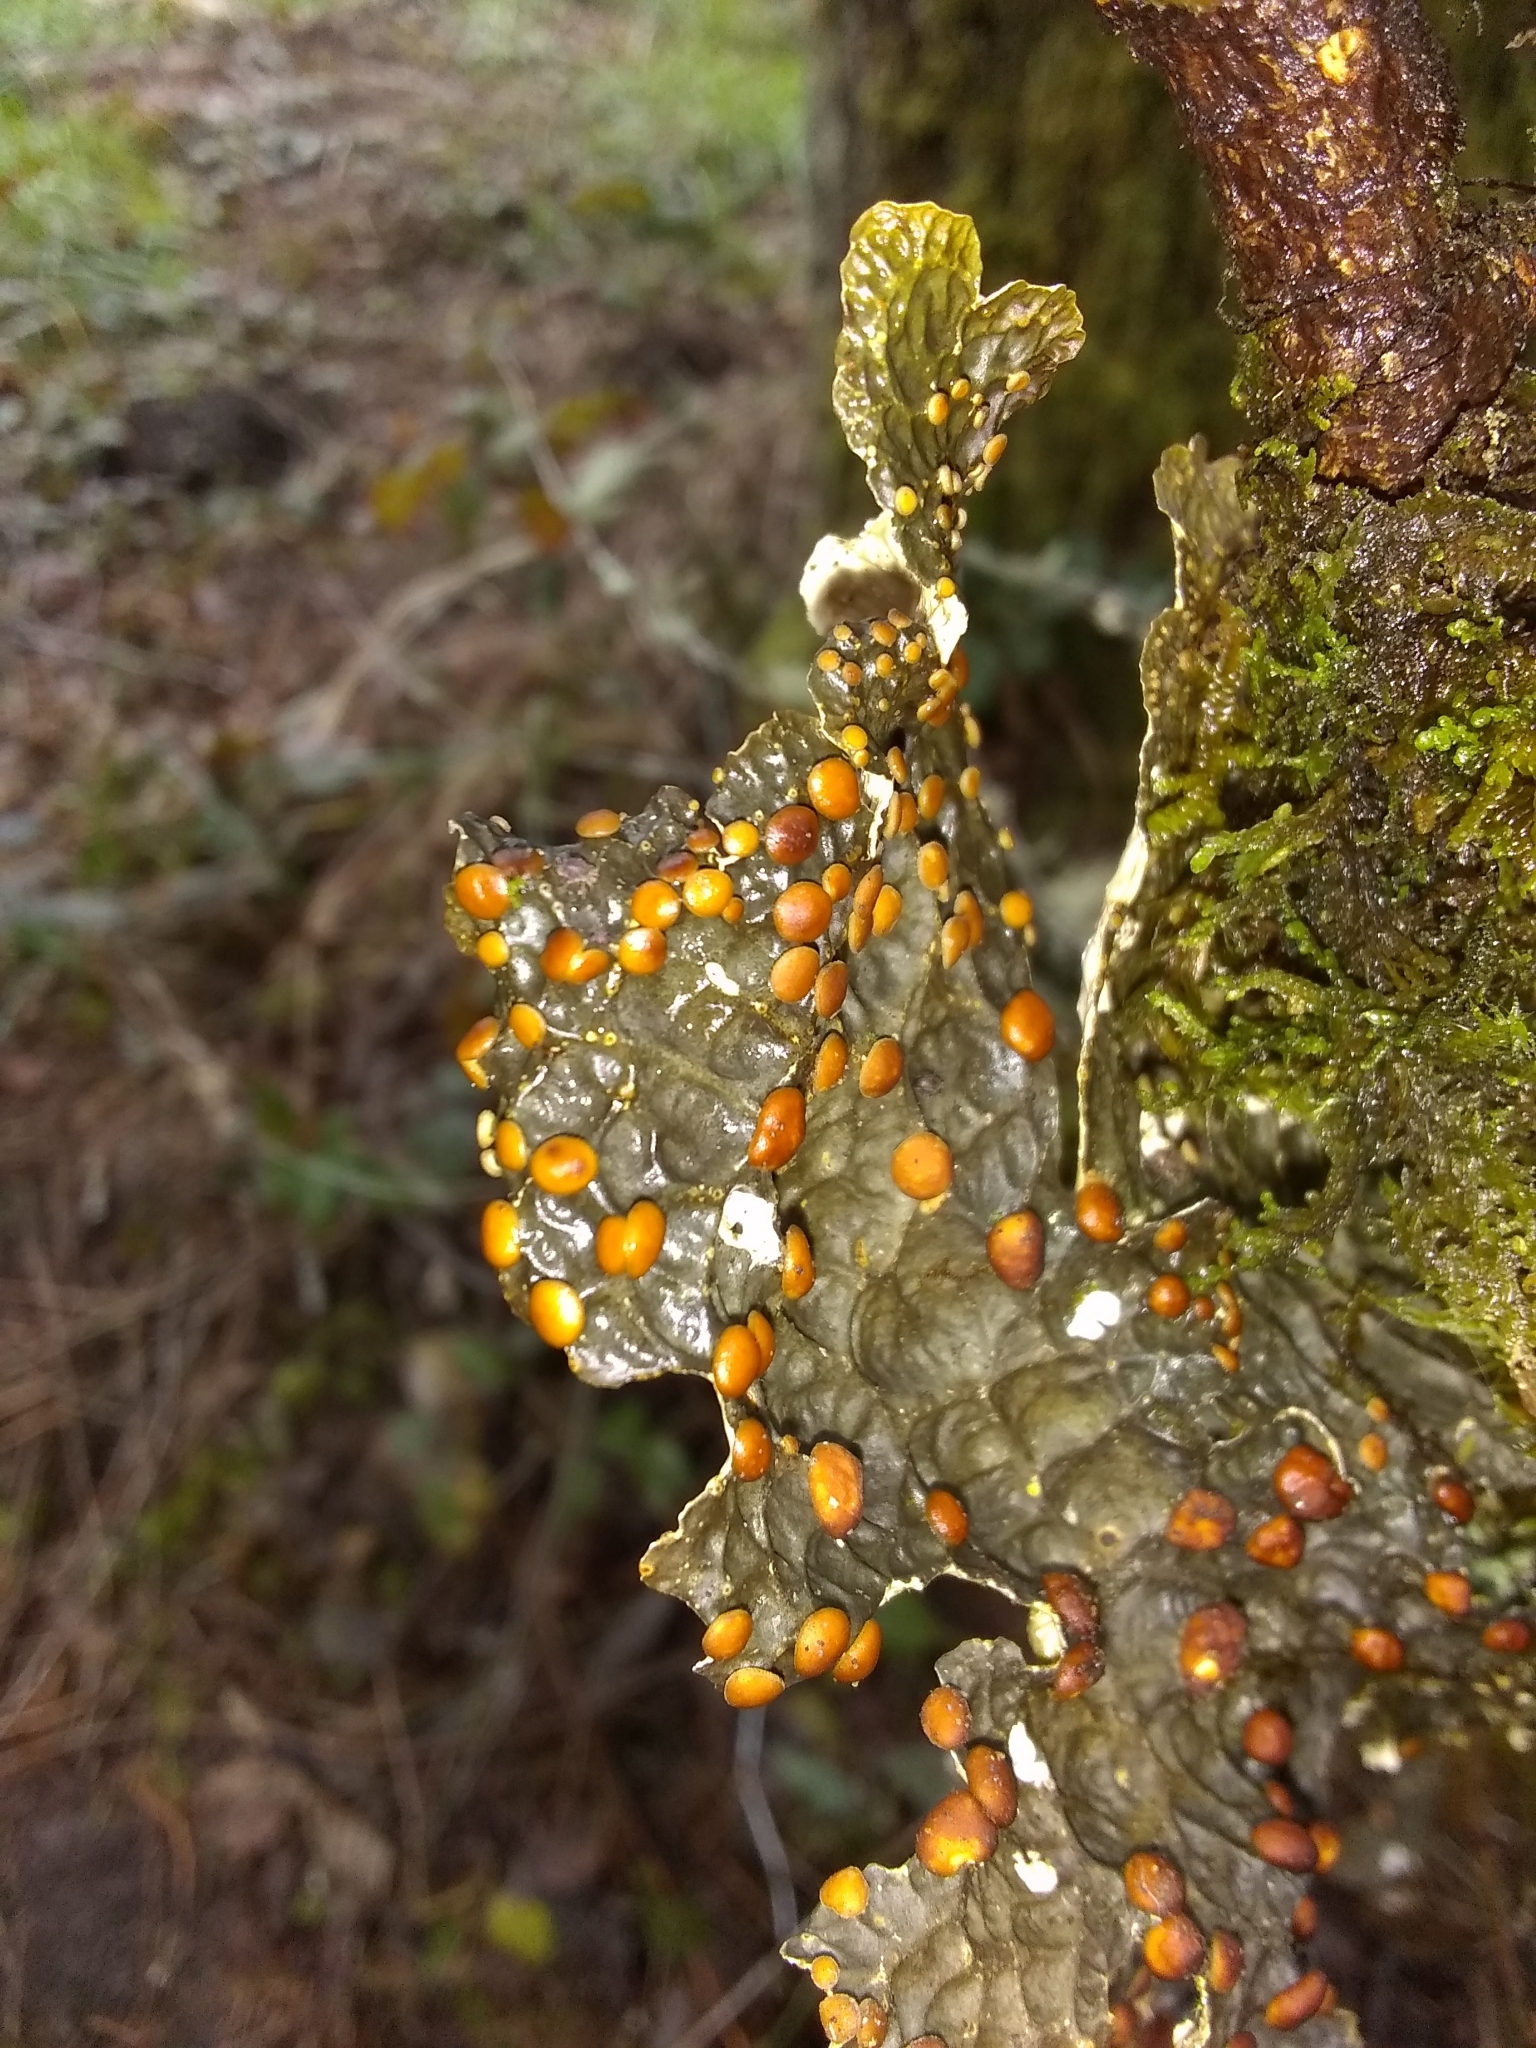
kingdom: Fungi
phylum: Ascomycota
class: Lecanoromycetes
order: Peltigerales
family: Lobariaceae
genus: Lobaria
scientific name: Lobaria anthraspis
